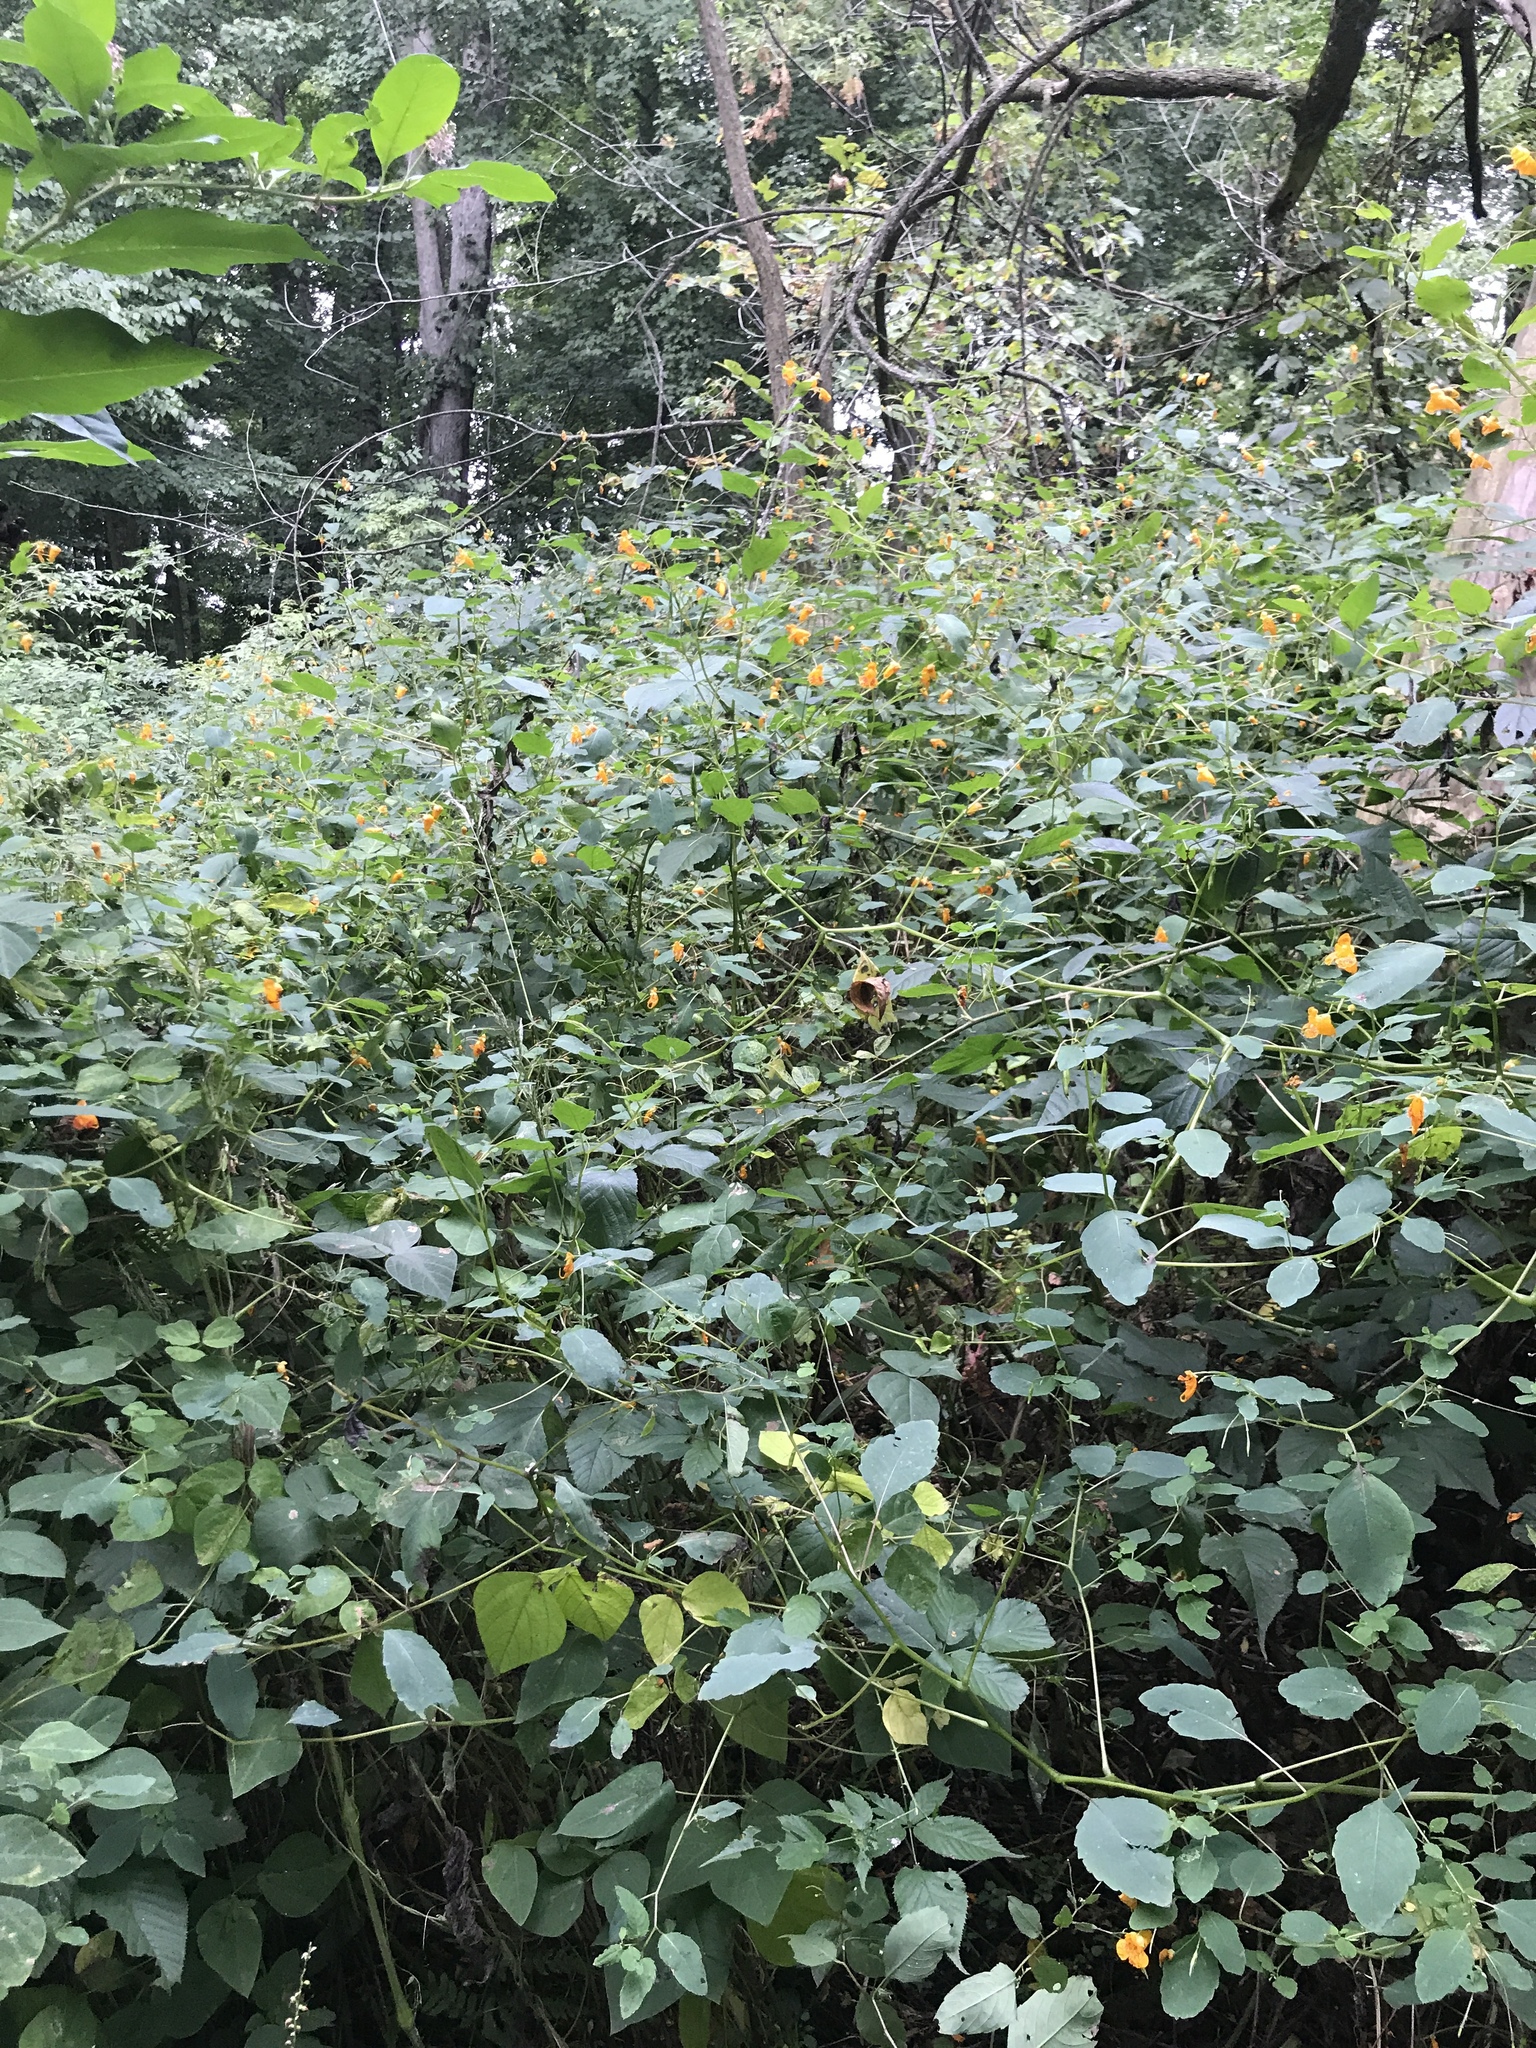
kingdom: Plantae
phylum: Tracheophyta
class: Magnoliopsida
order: Ericales
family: Balsaminaceae
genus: Impatiens
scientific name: Impatiens capensis
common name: Orange balsam
